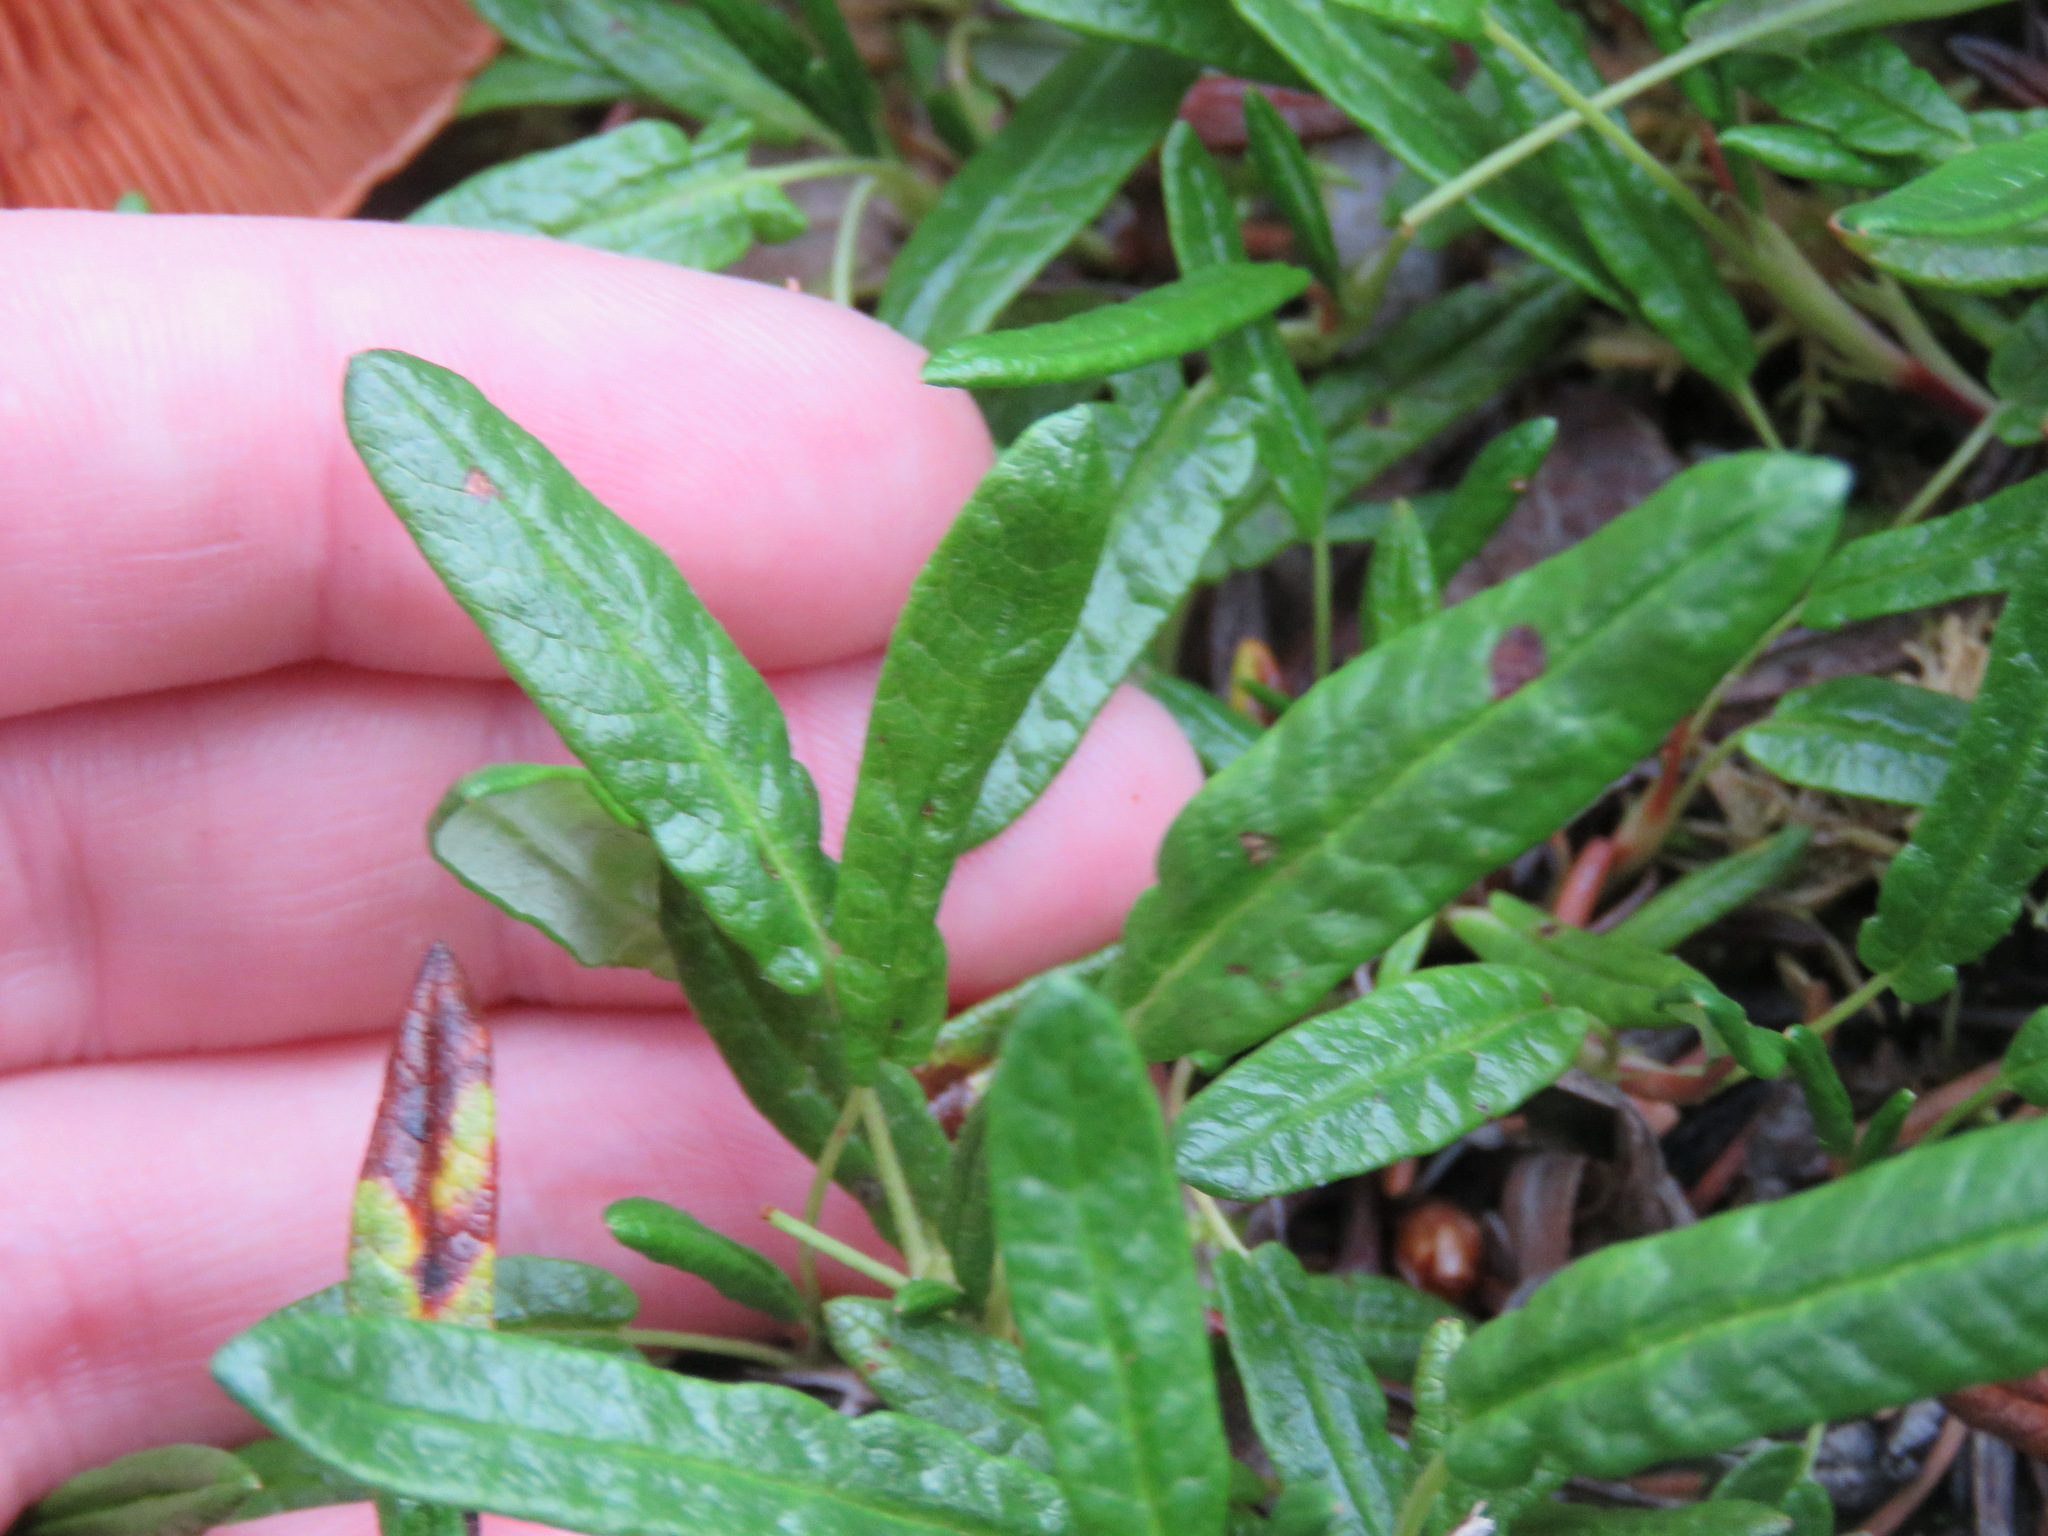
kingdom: Plantae
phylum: Tracheophyta
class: Magnoliopsida
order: Rosales
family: Rosaceae
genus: Dryas
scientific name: Dryas integrifolia
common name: Entire-leaved mountain avens
